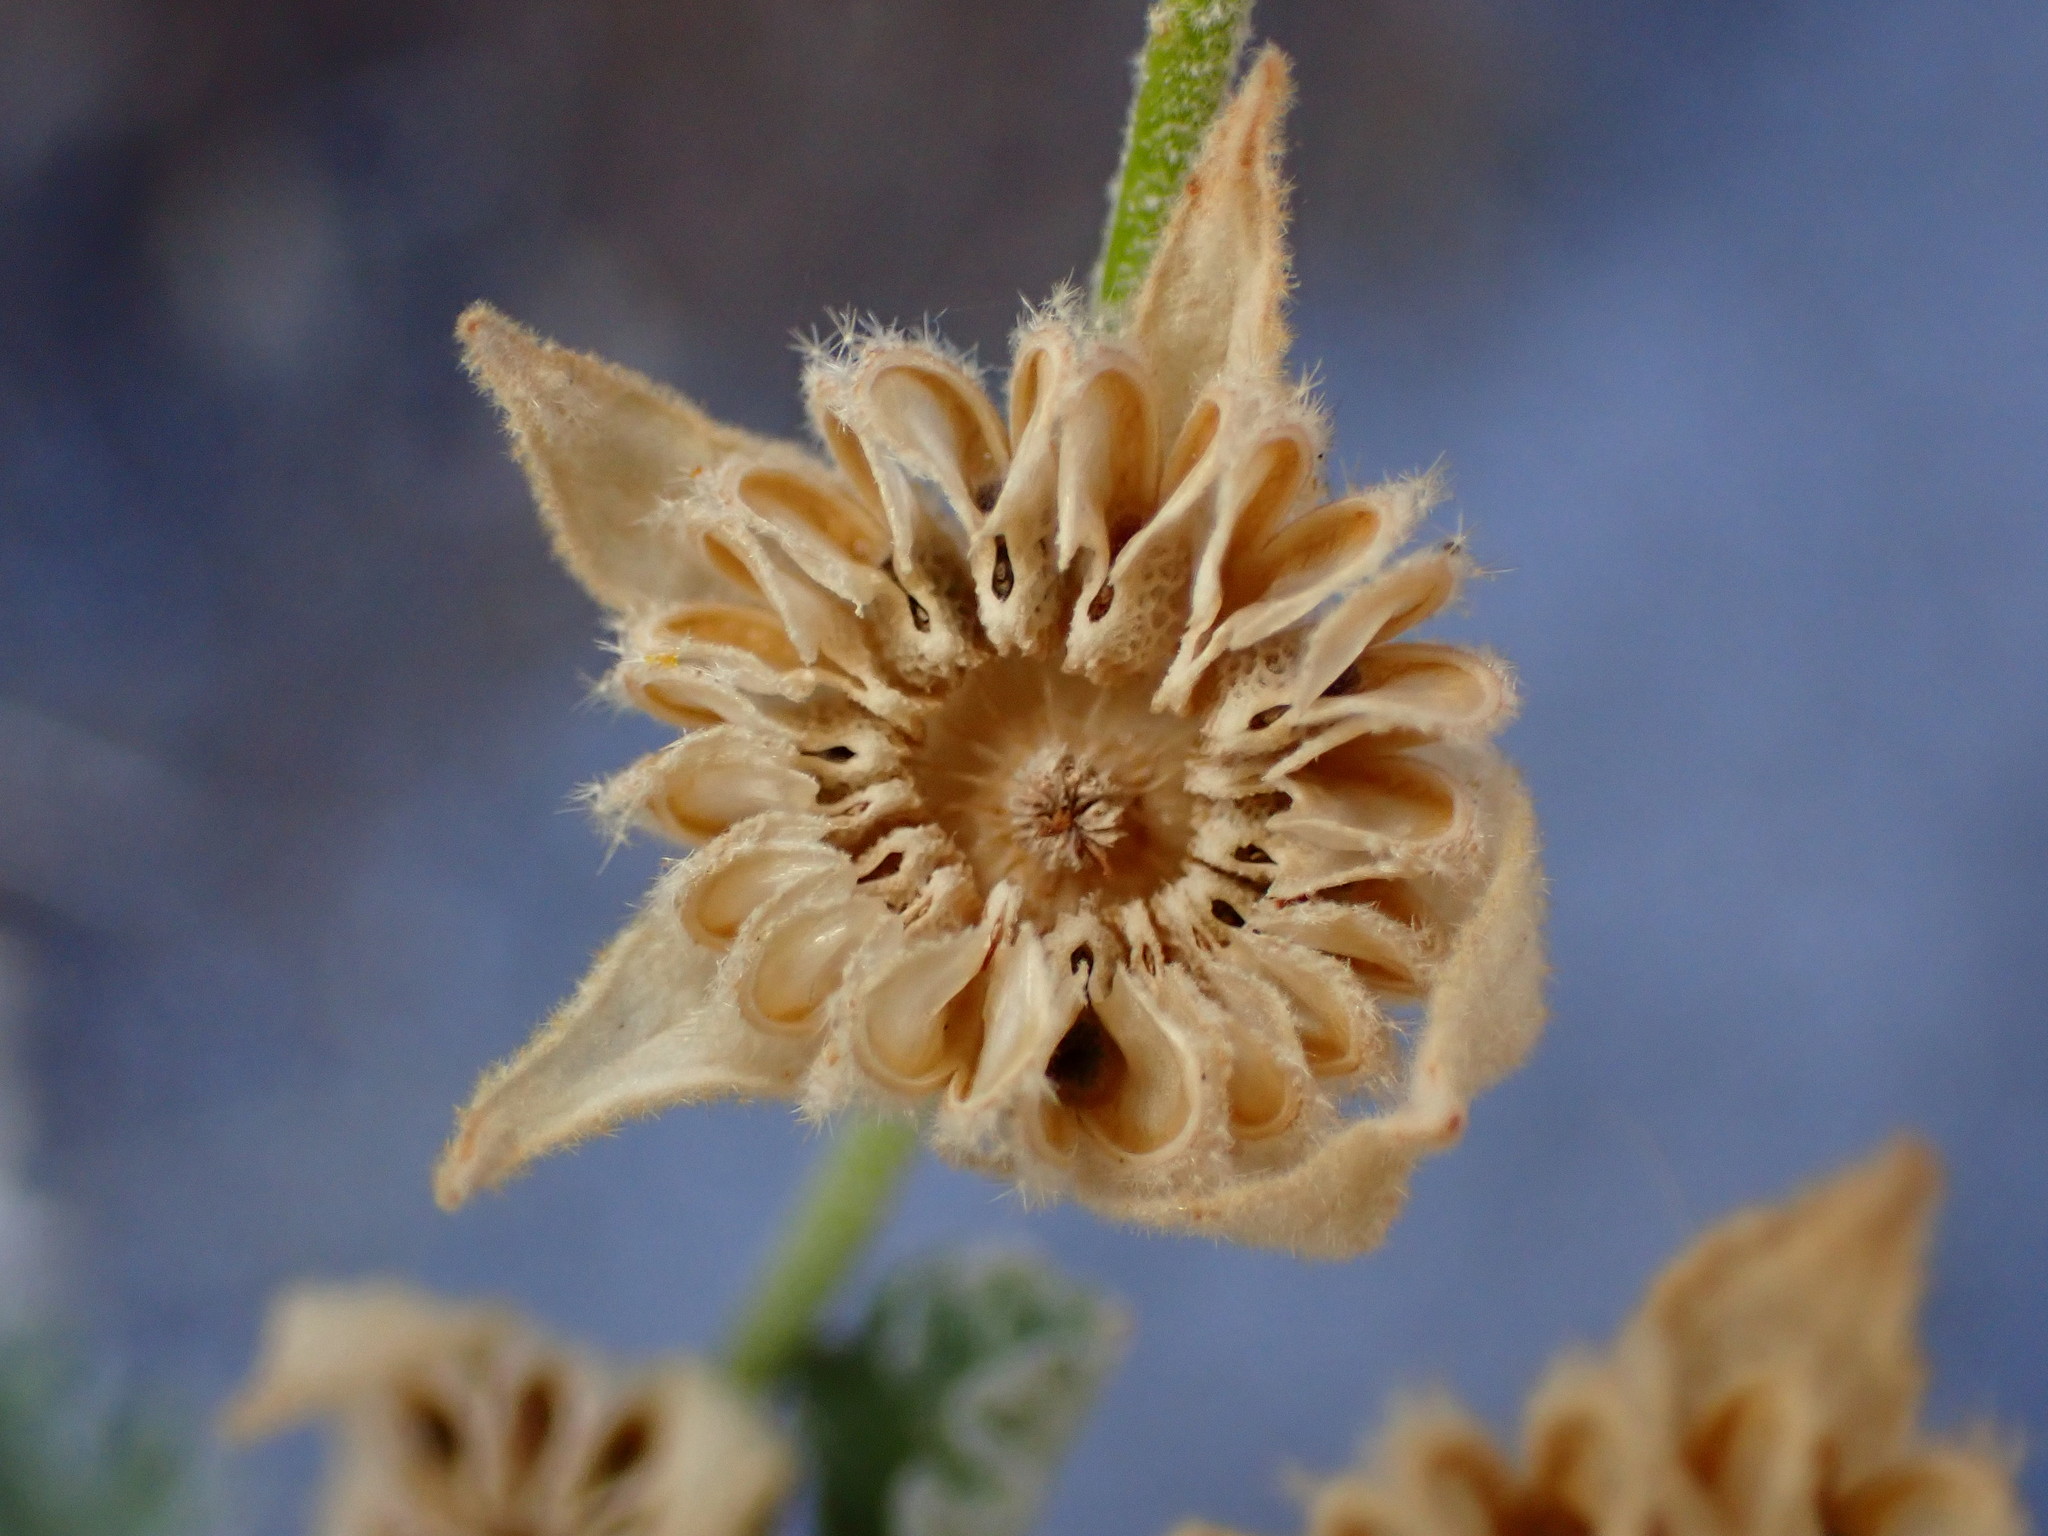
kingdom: Plantae
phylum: Tracheophyta
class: Magnoliopsida
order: Malvales
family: Malvaceae
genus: Sphaeralcea
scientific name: Sphaeralcea ambigua
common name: Apricot globe-mallow
